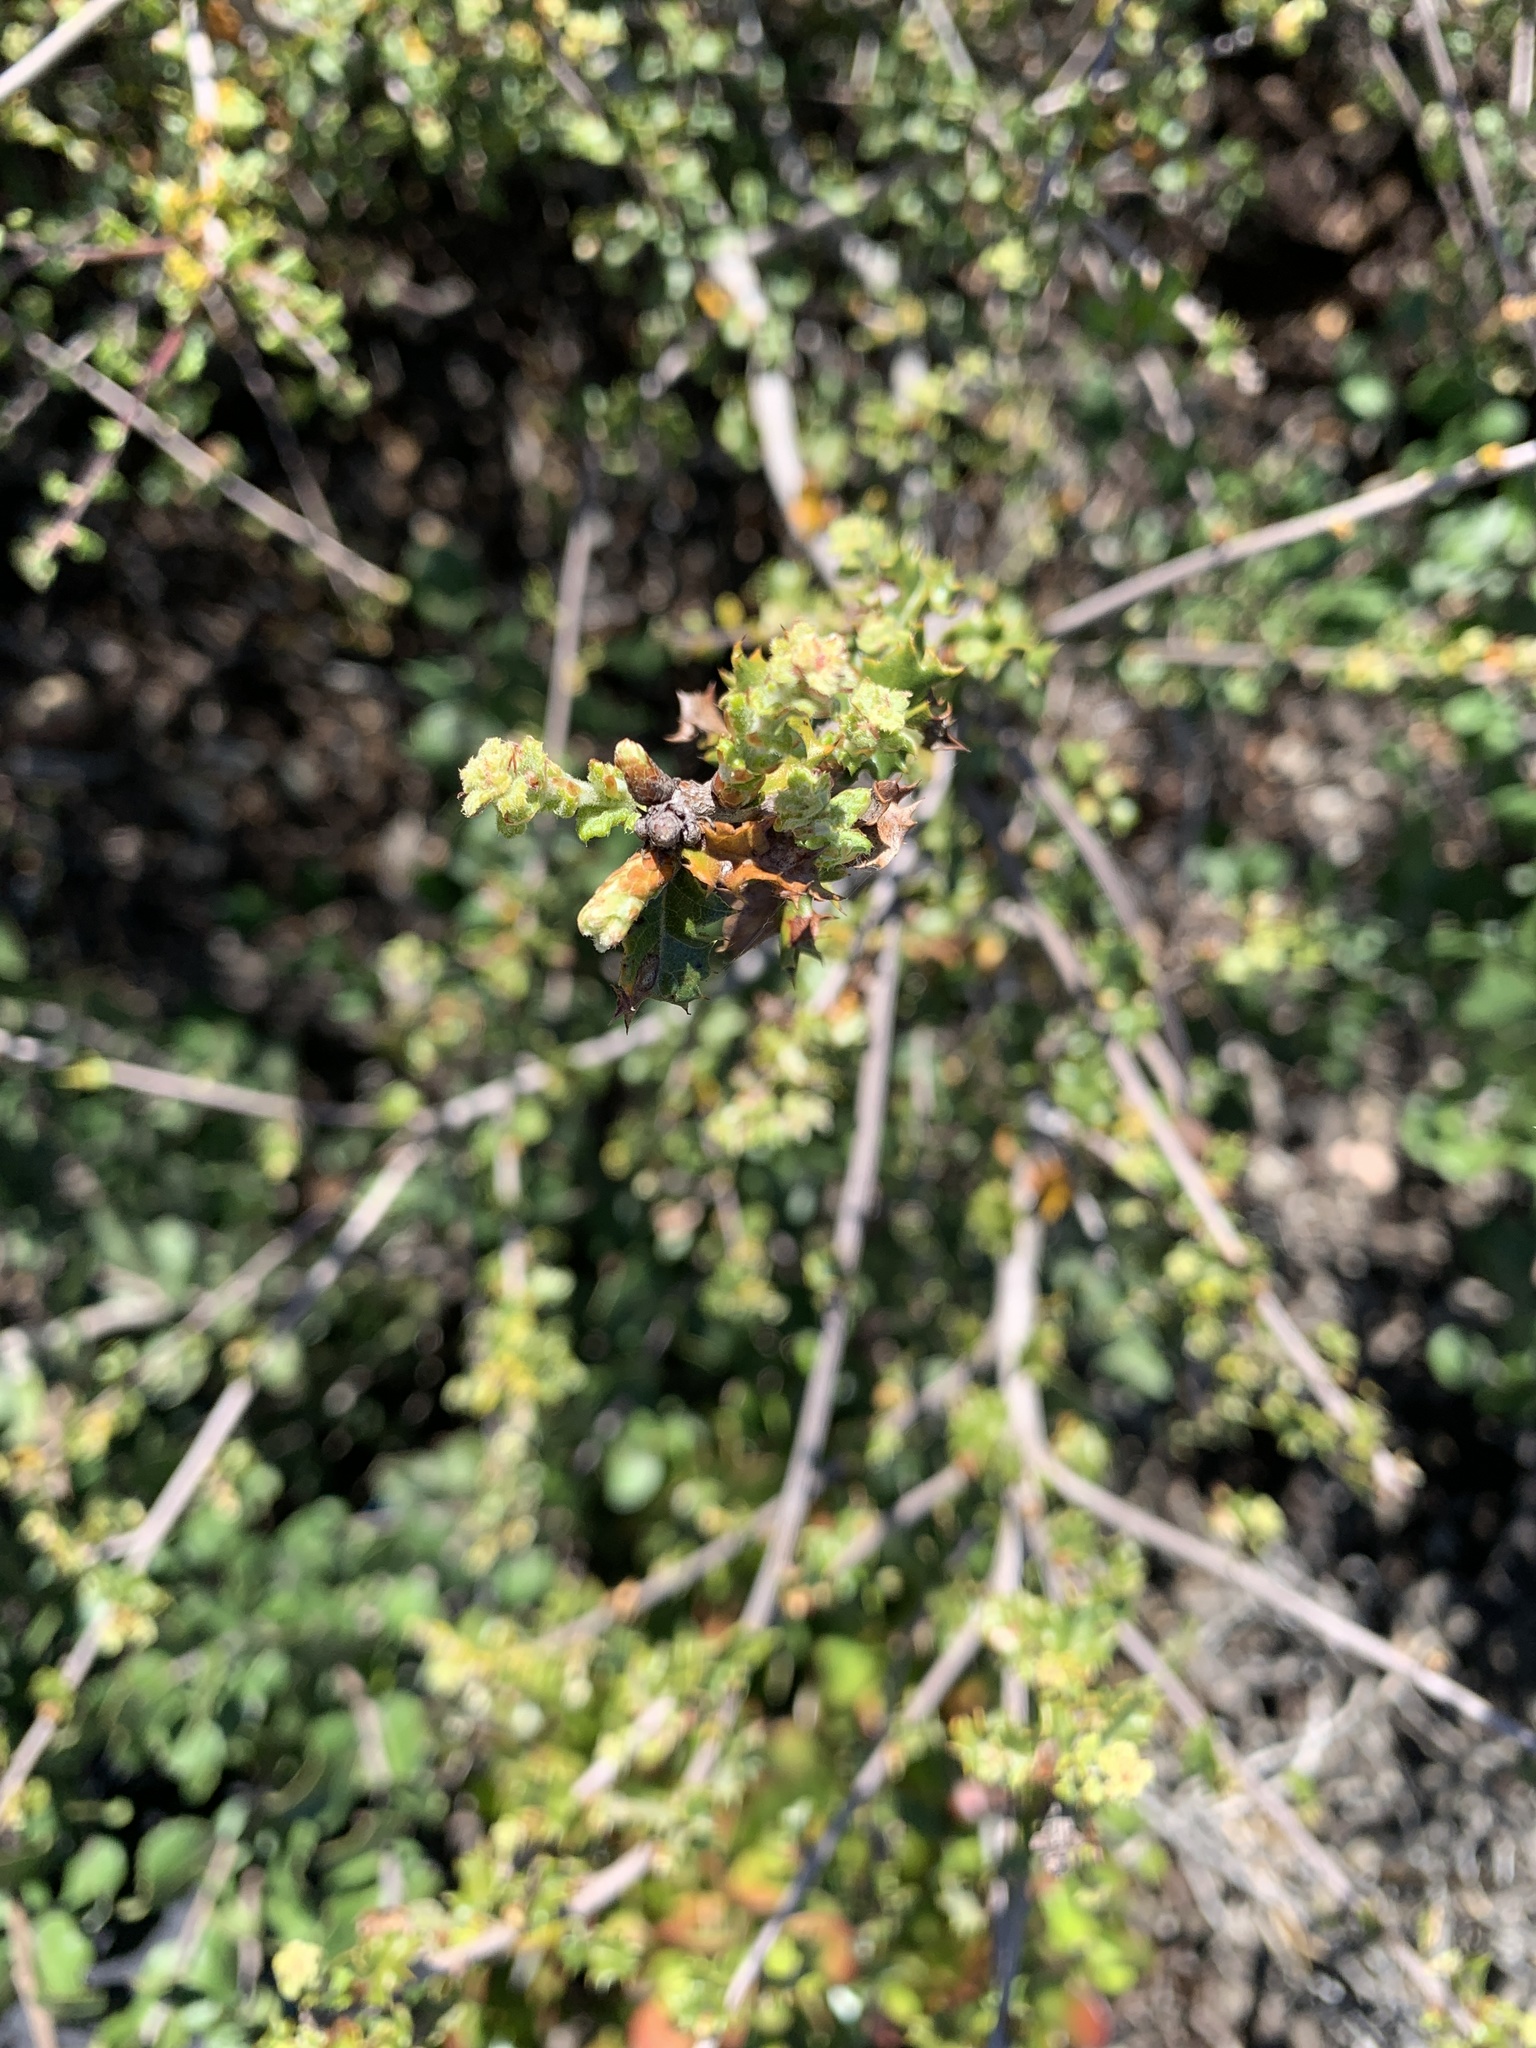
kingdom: Plantae
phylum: Tracheophyta
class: Magnoliopsida
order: Fagales
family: Fagaceae
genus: Quercus
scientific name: Quercus dumosa
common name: Coastal sage scrub oak
